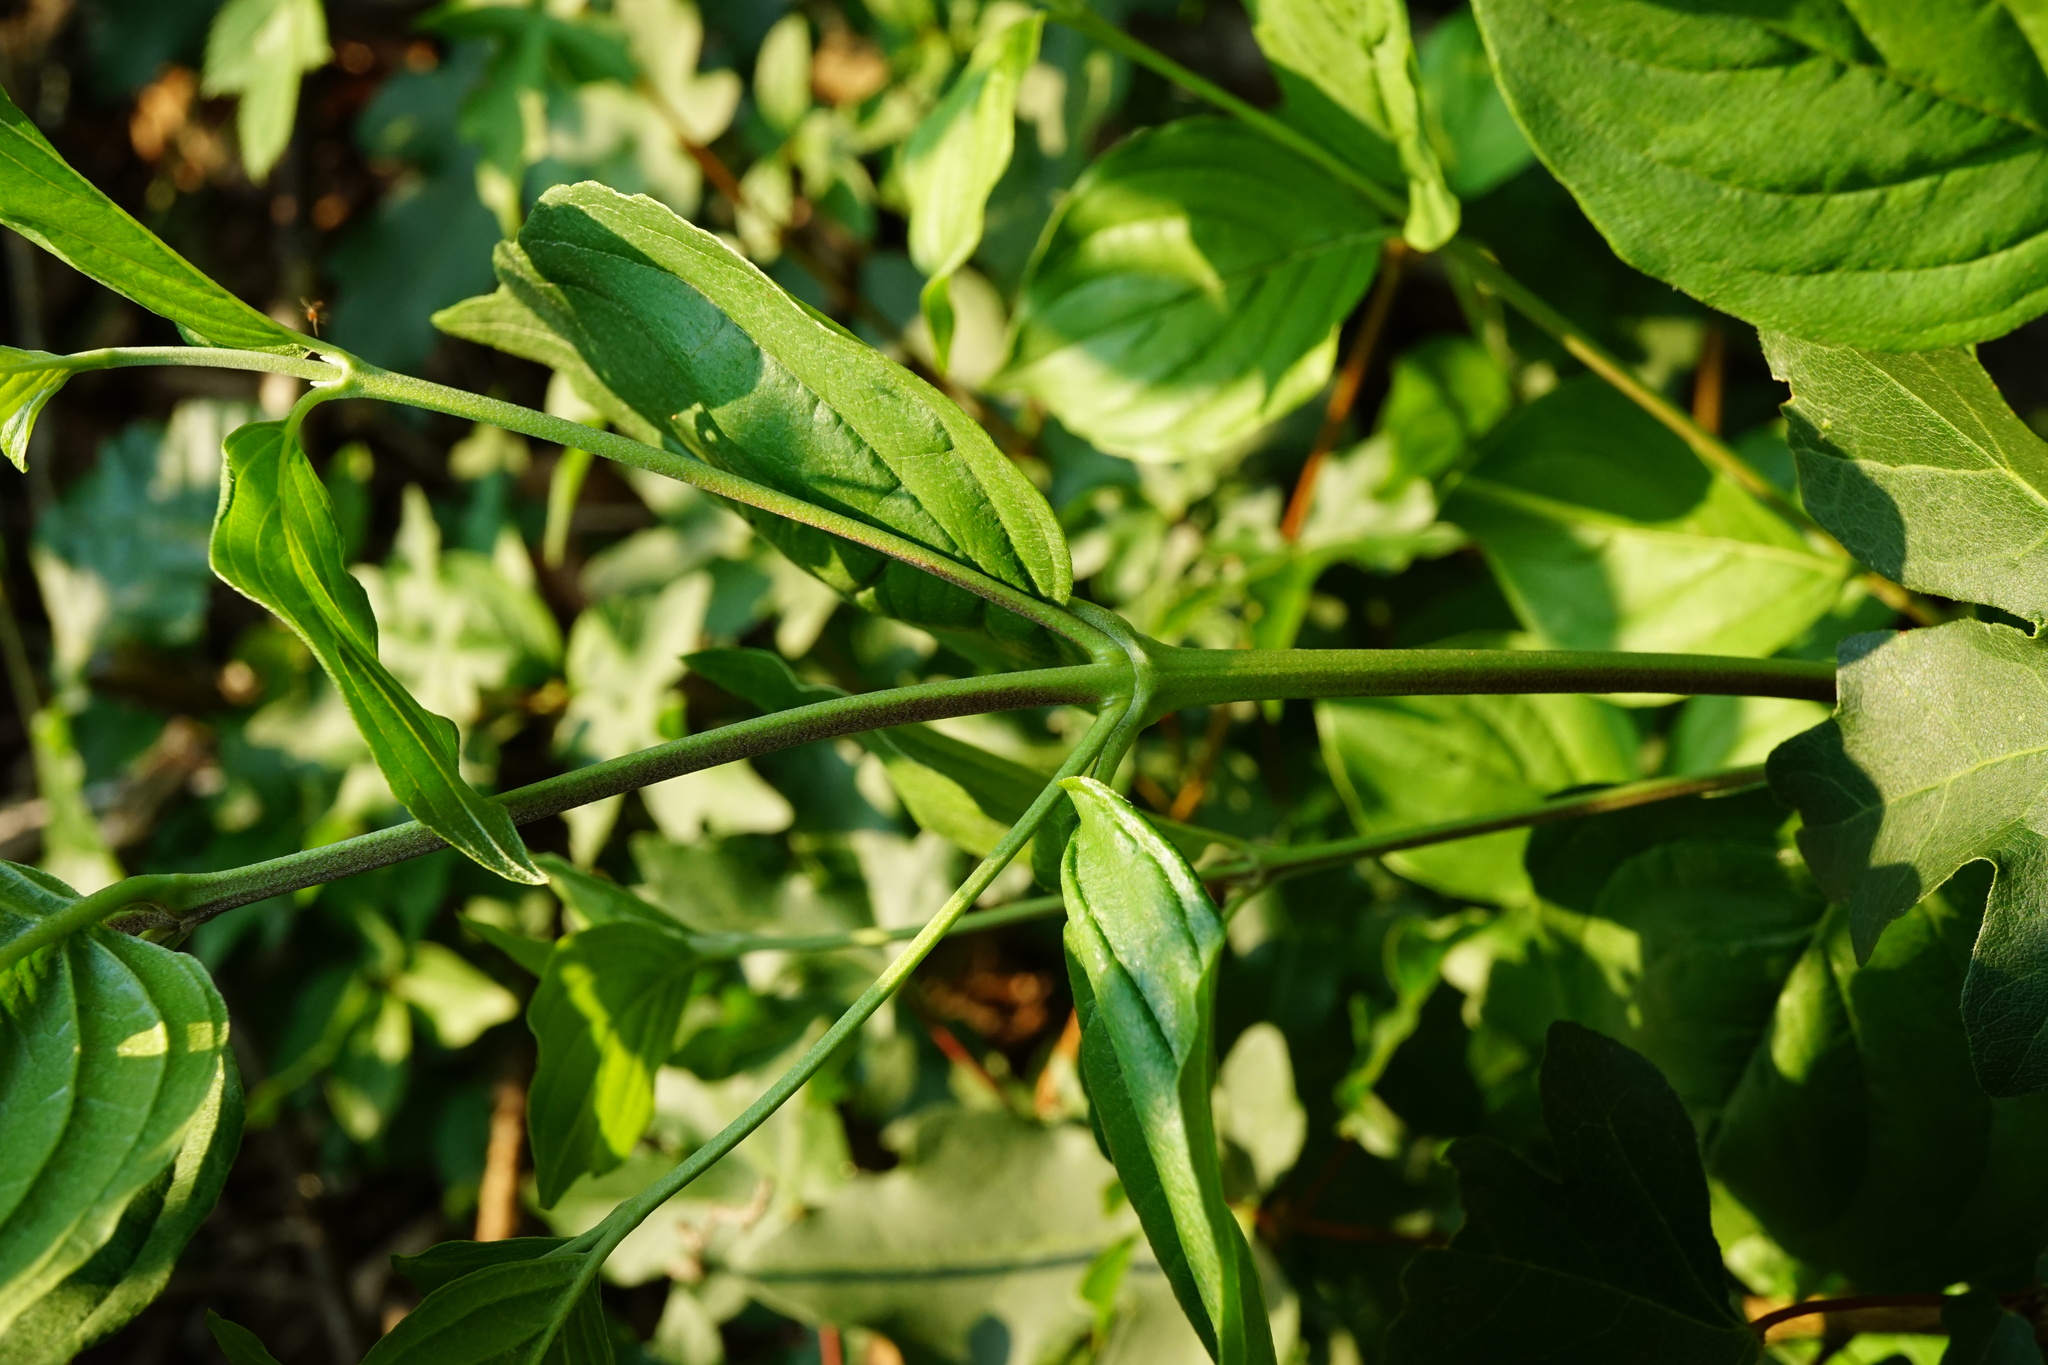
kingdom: Plantae
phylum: Tracheophyta
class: Magnoliopsida
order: Cornales
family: Cornaceae
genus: Cornus
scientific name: Cornus mas
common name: Cornelian-cherry
